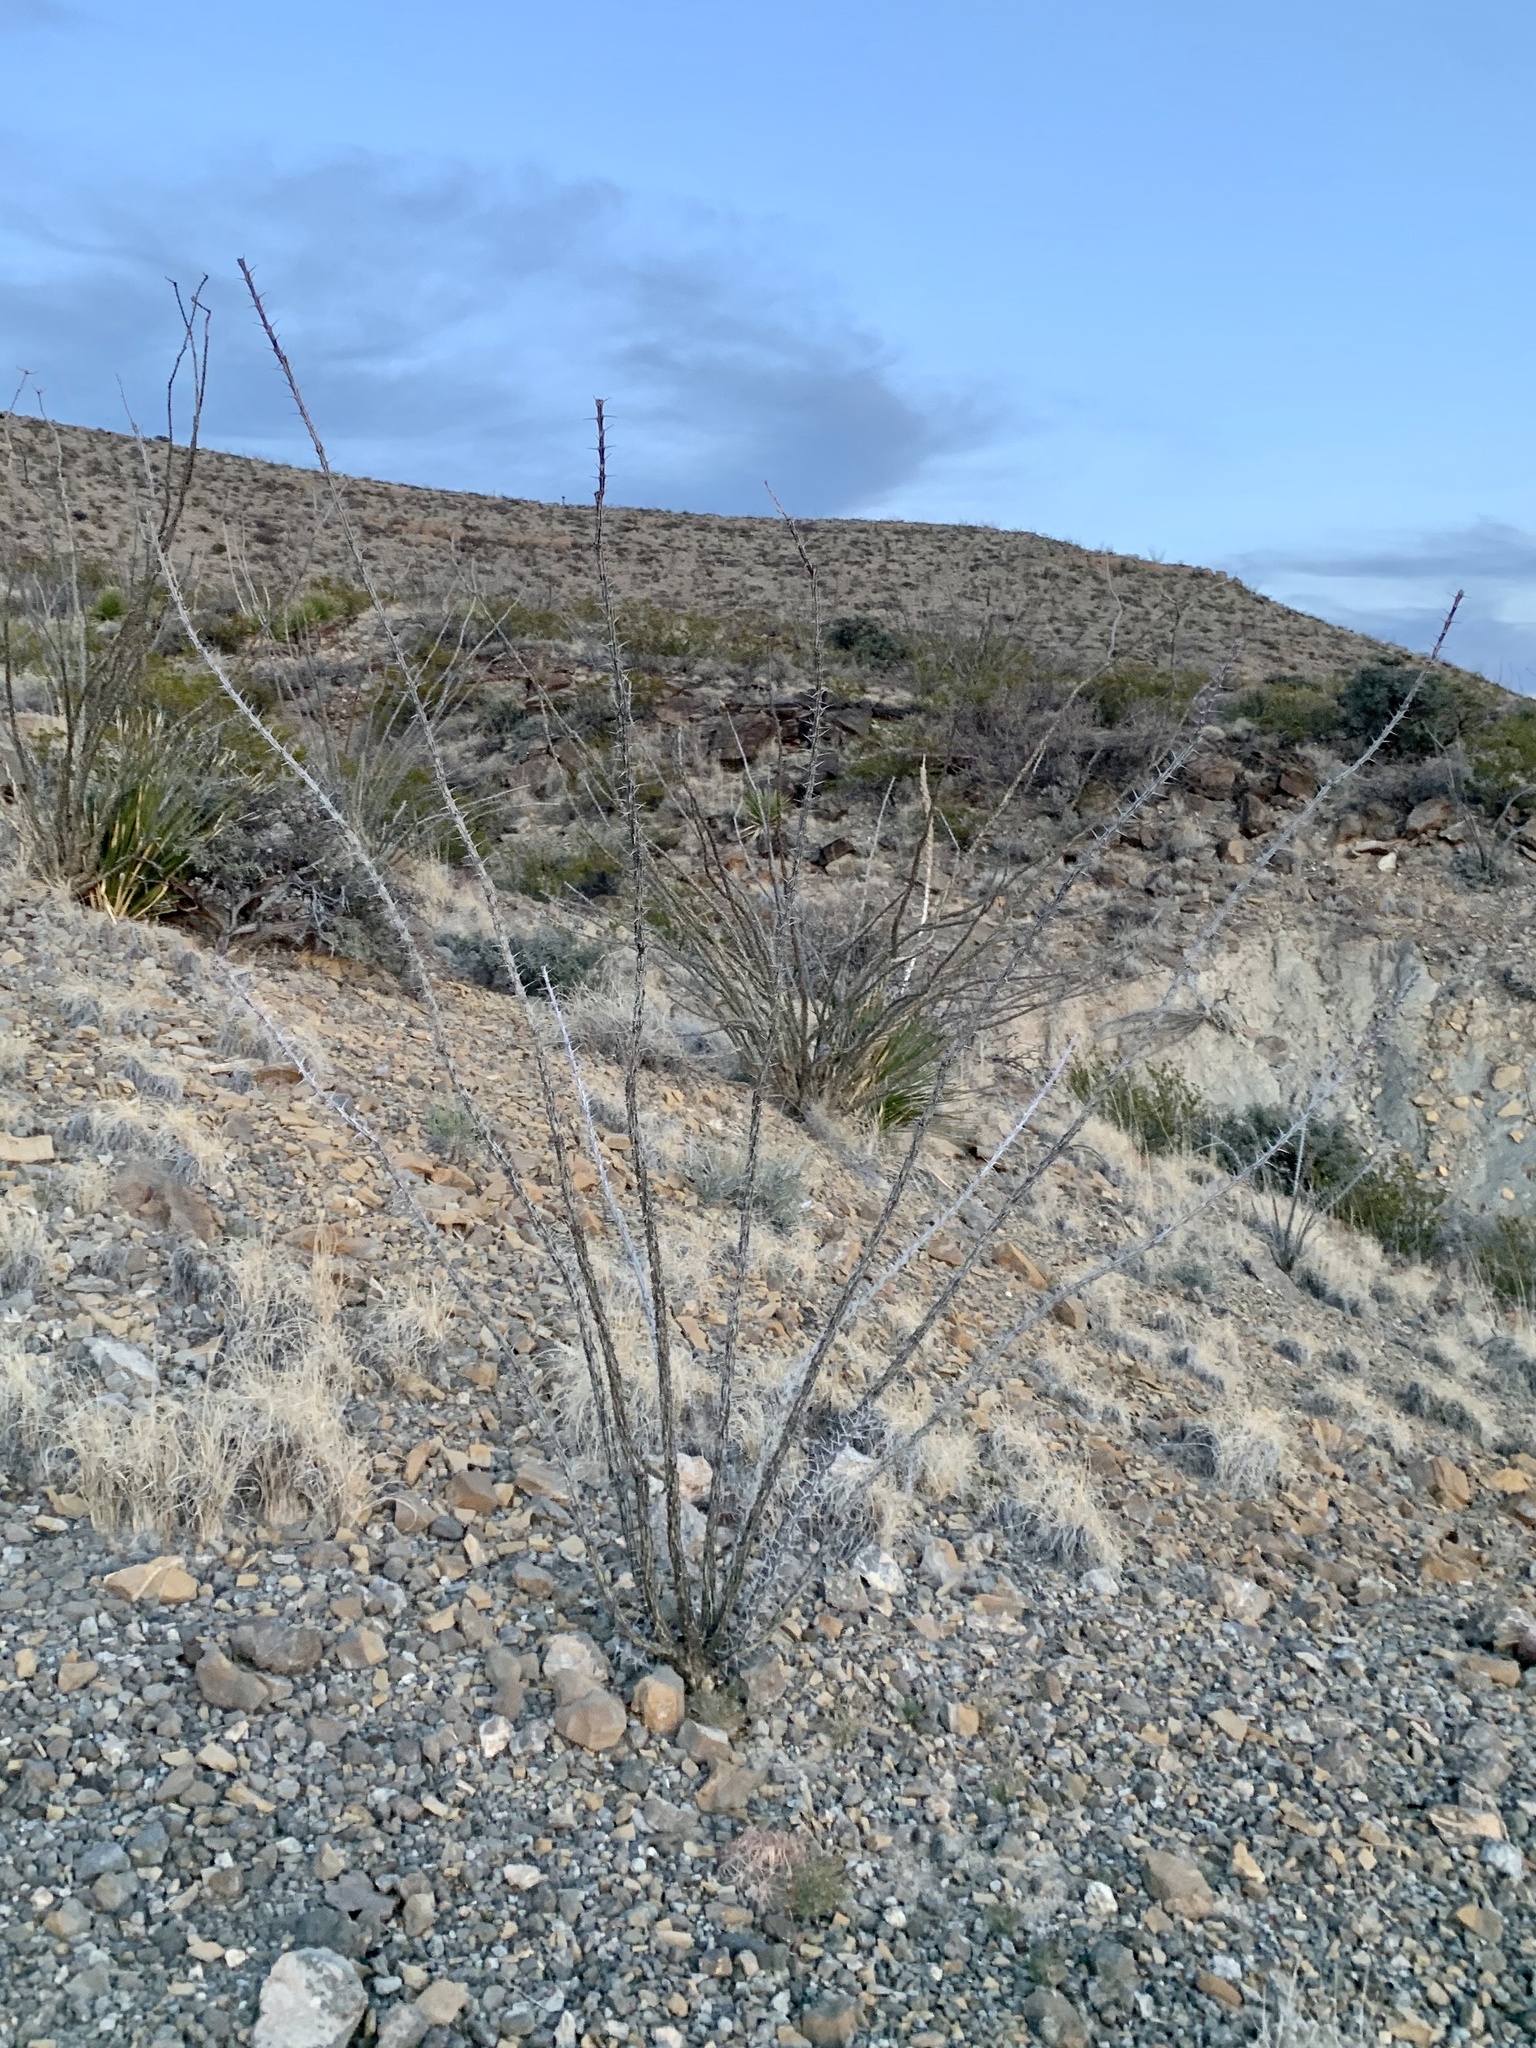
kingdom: Plantae
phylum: Tracheophyta
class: Magnoliopsida
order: Ericales
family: Fouquieriaceae
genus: Fouquieria
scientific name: Fouquieria splendens
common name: Vine-cactus
